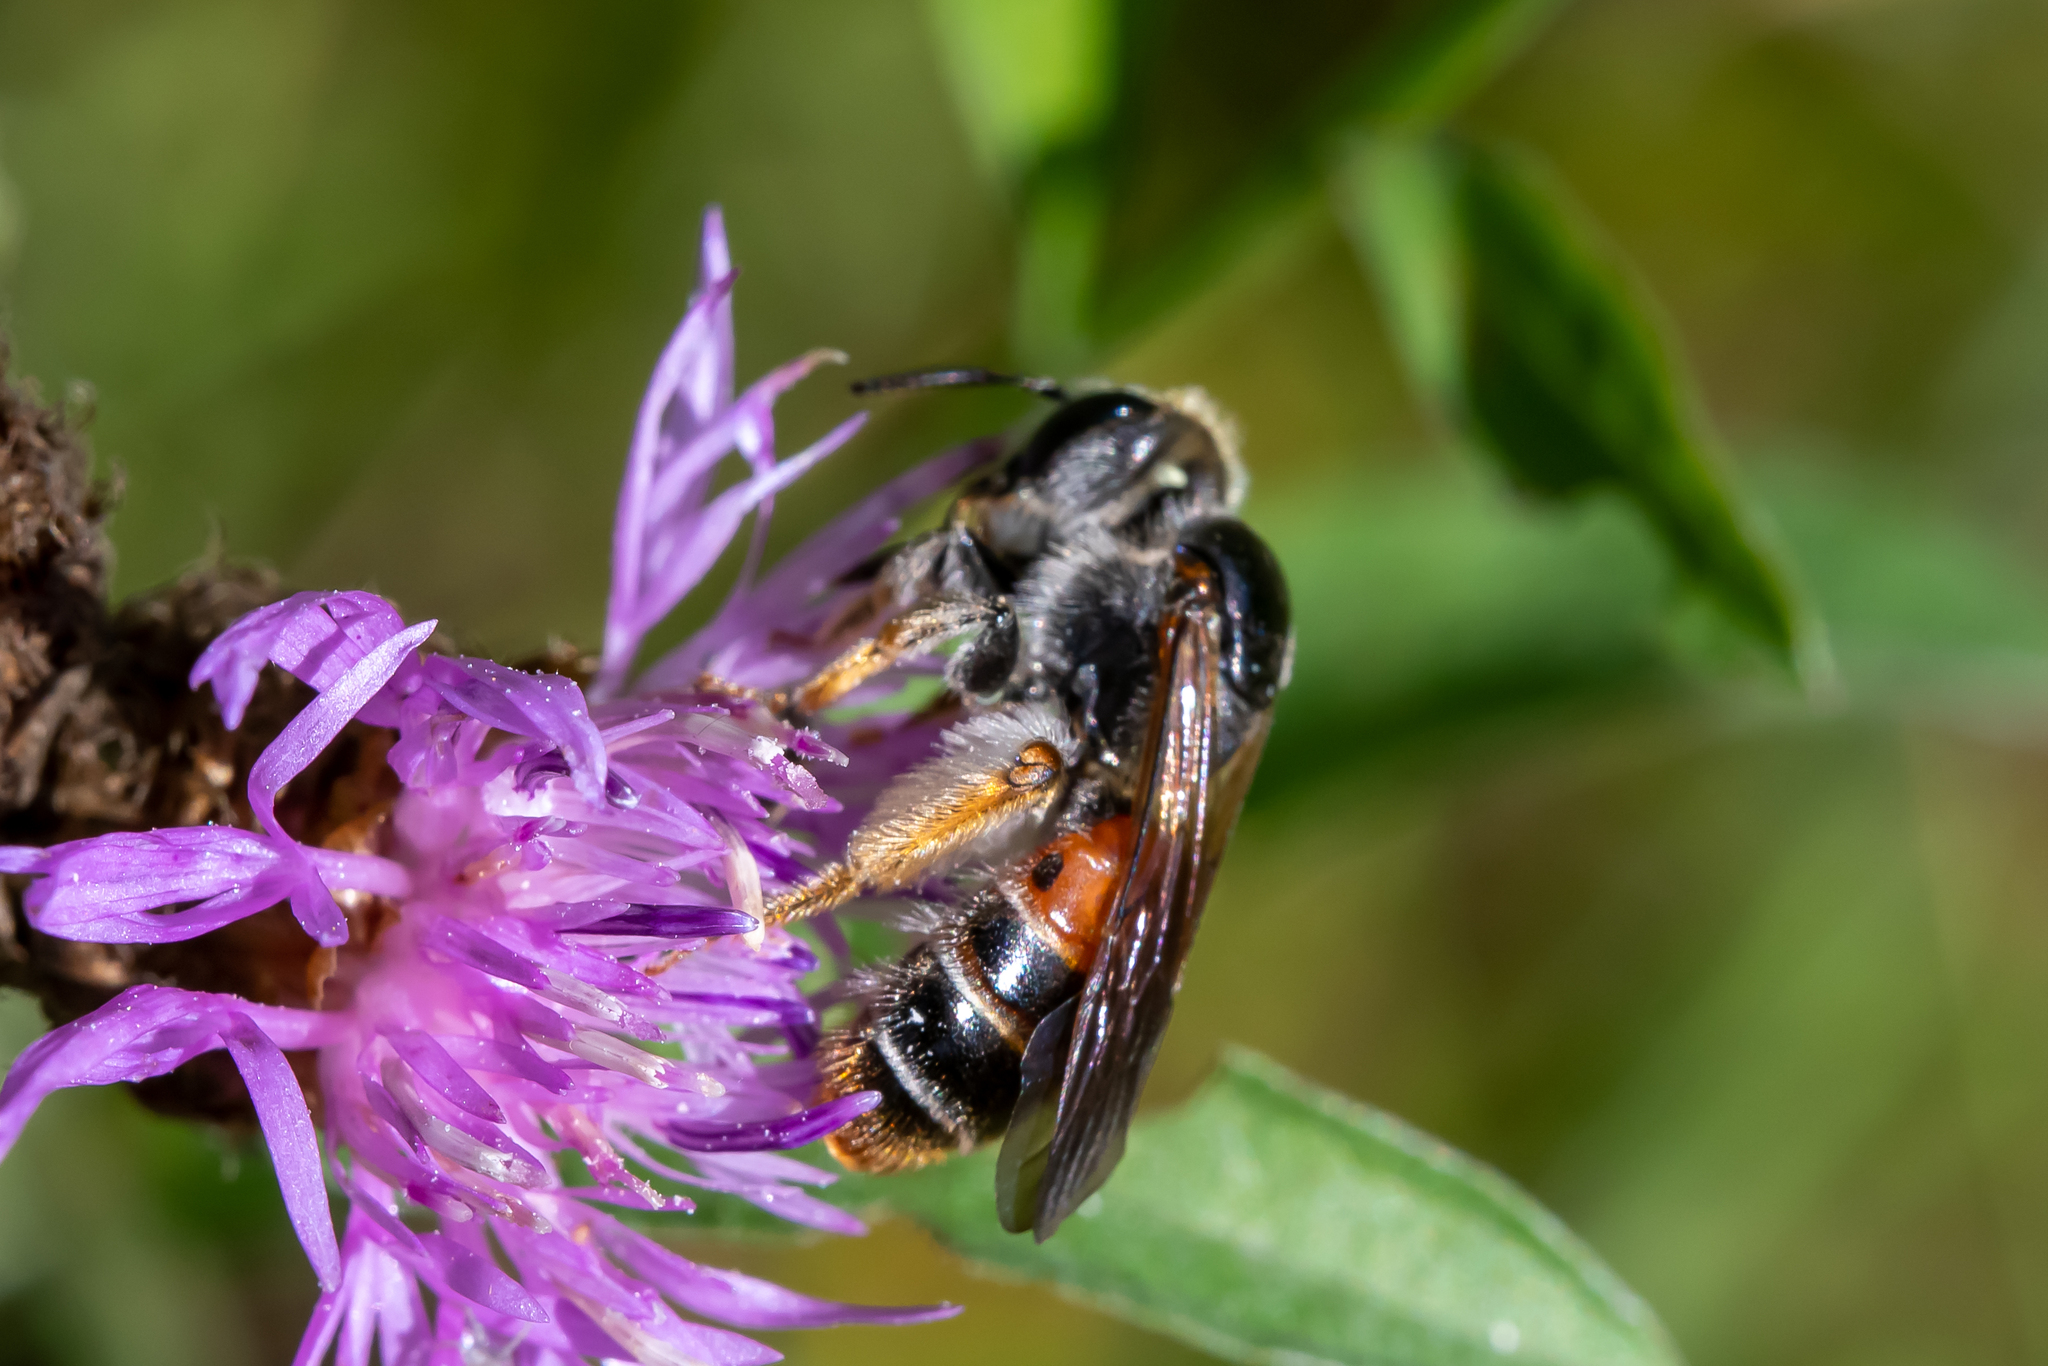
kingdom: Animalia
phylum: Arthropoda
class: Insecta
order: Hymenoptera
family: Andrenidae
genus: Andrena
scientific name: Andrena hattorfiana
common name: Large scabious mining bee
